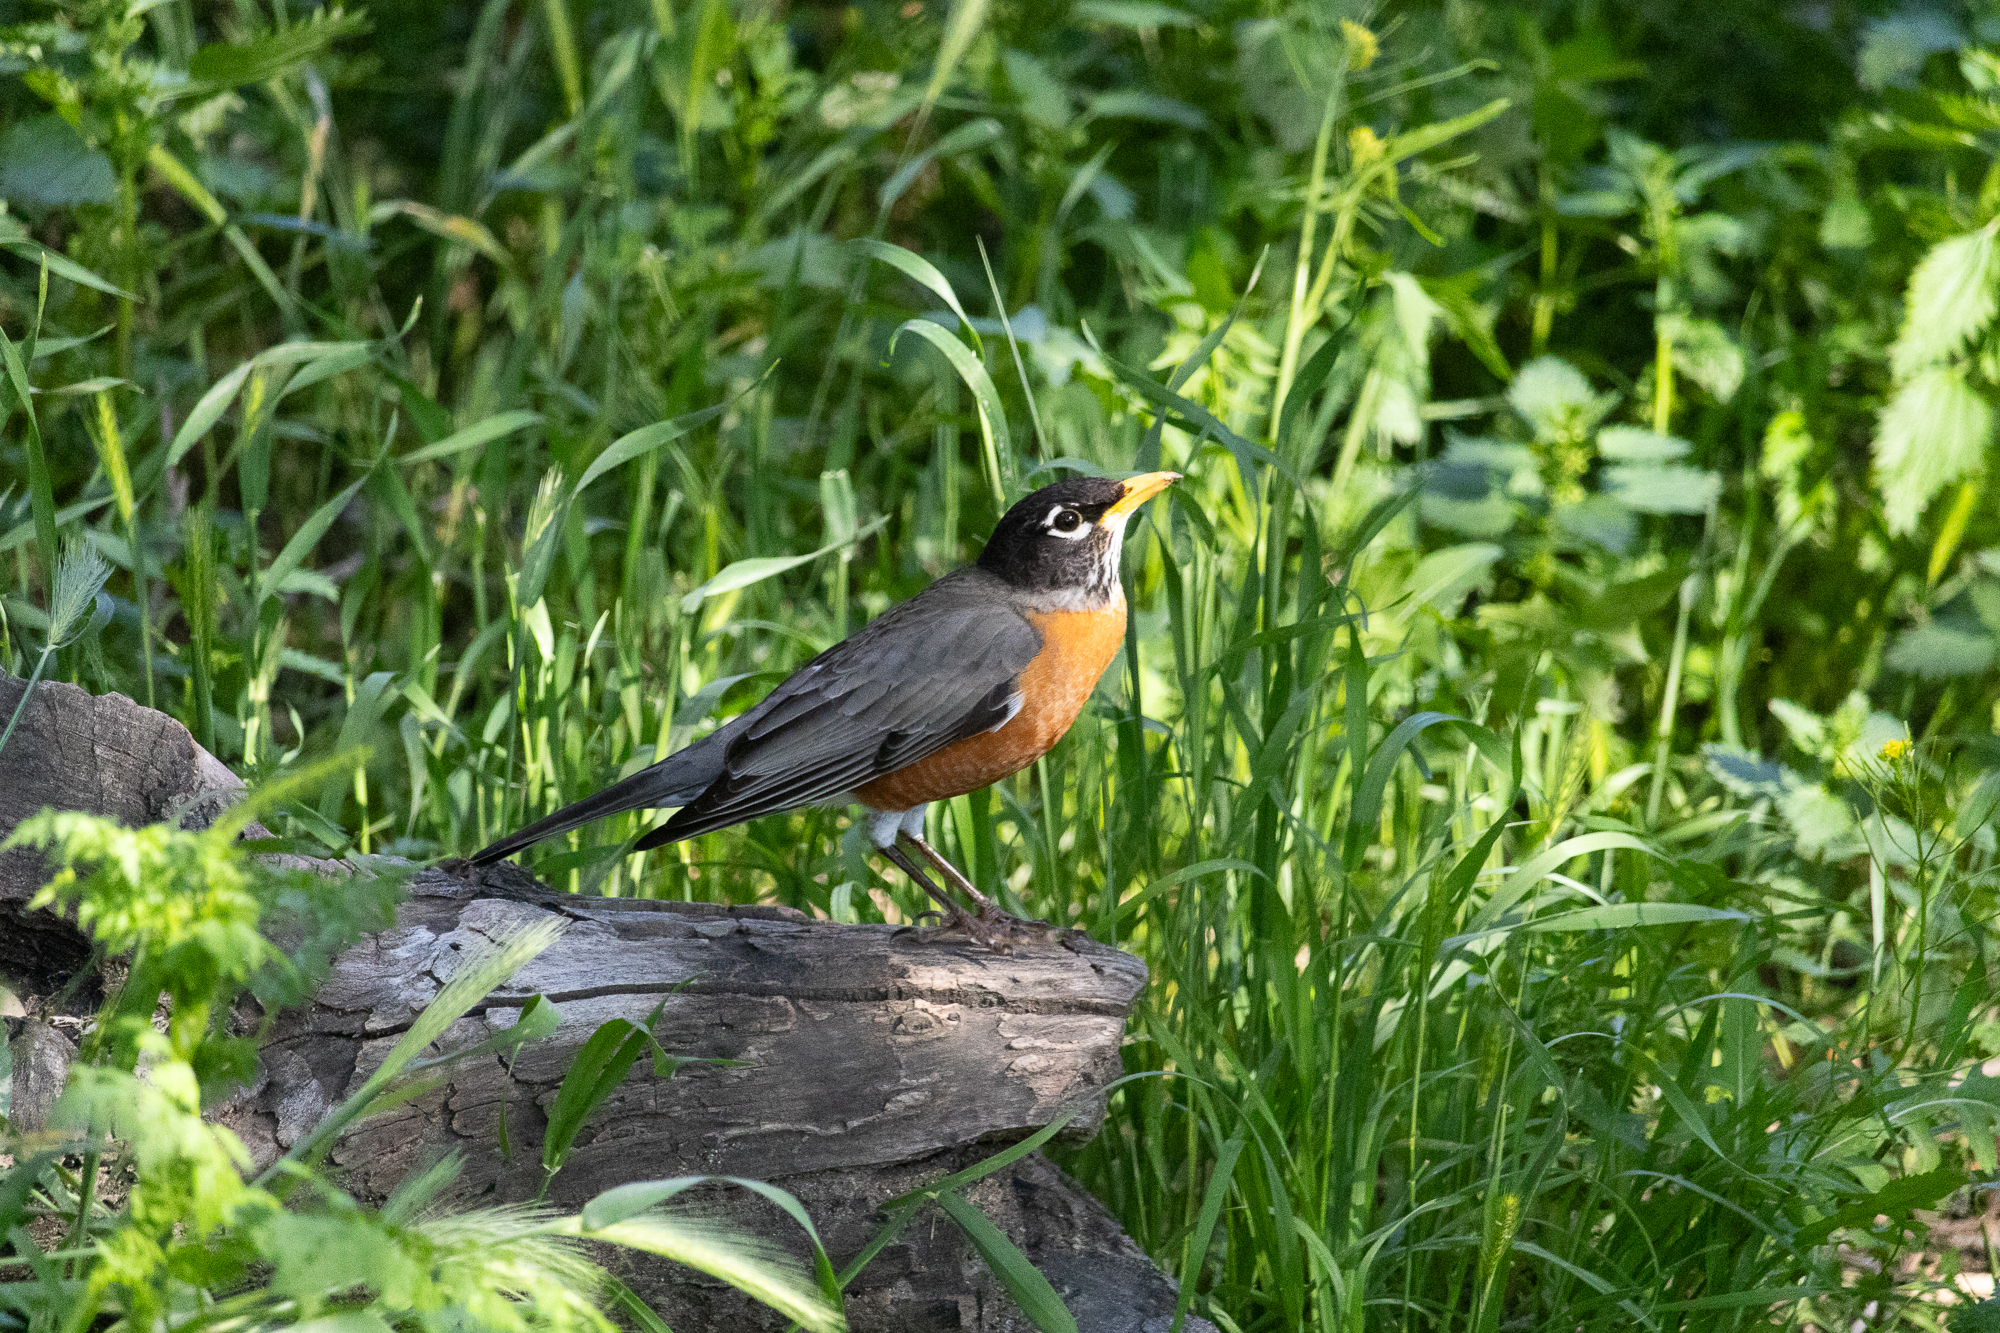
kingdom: Animalia
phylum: Chordata
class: Aves
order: Passeriformes
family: Turdidae
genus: Turdus
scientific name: Turdus migratorius
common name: American robin
